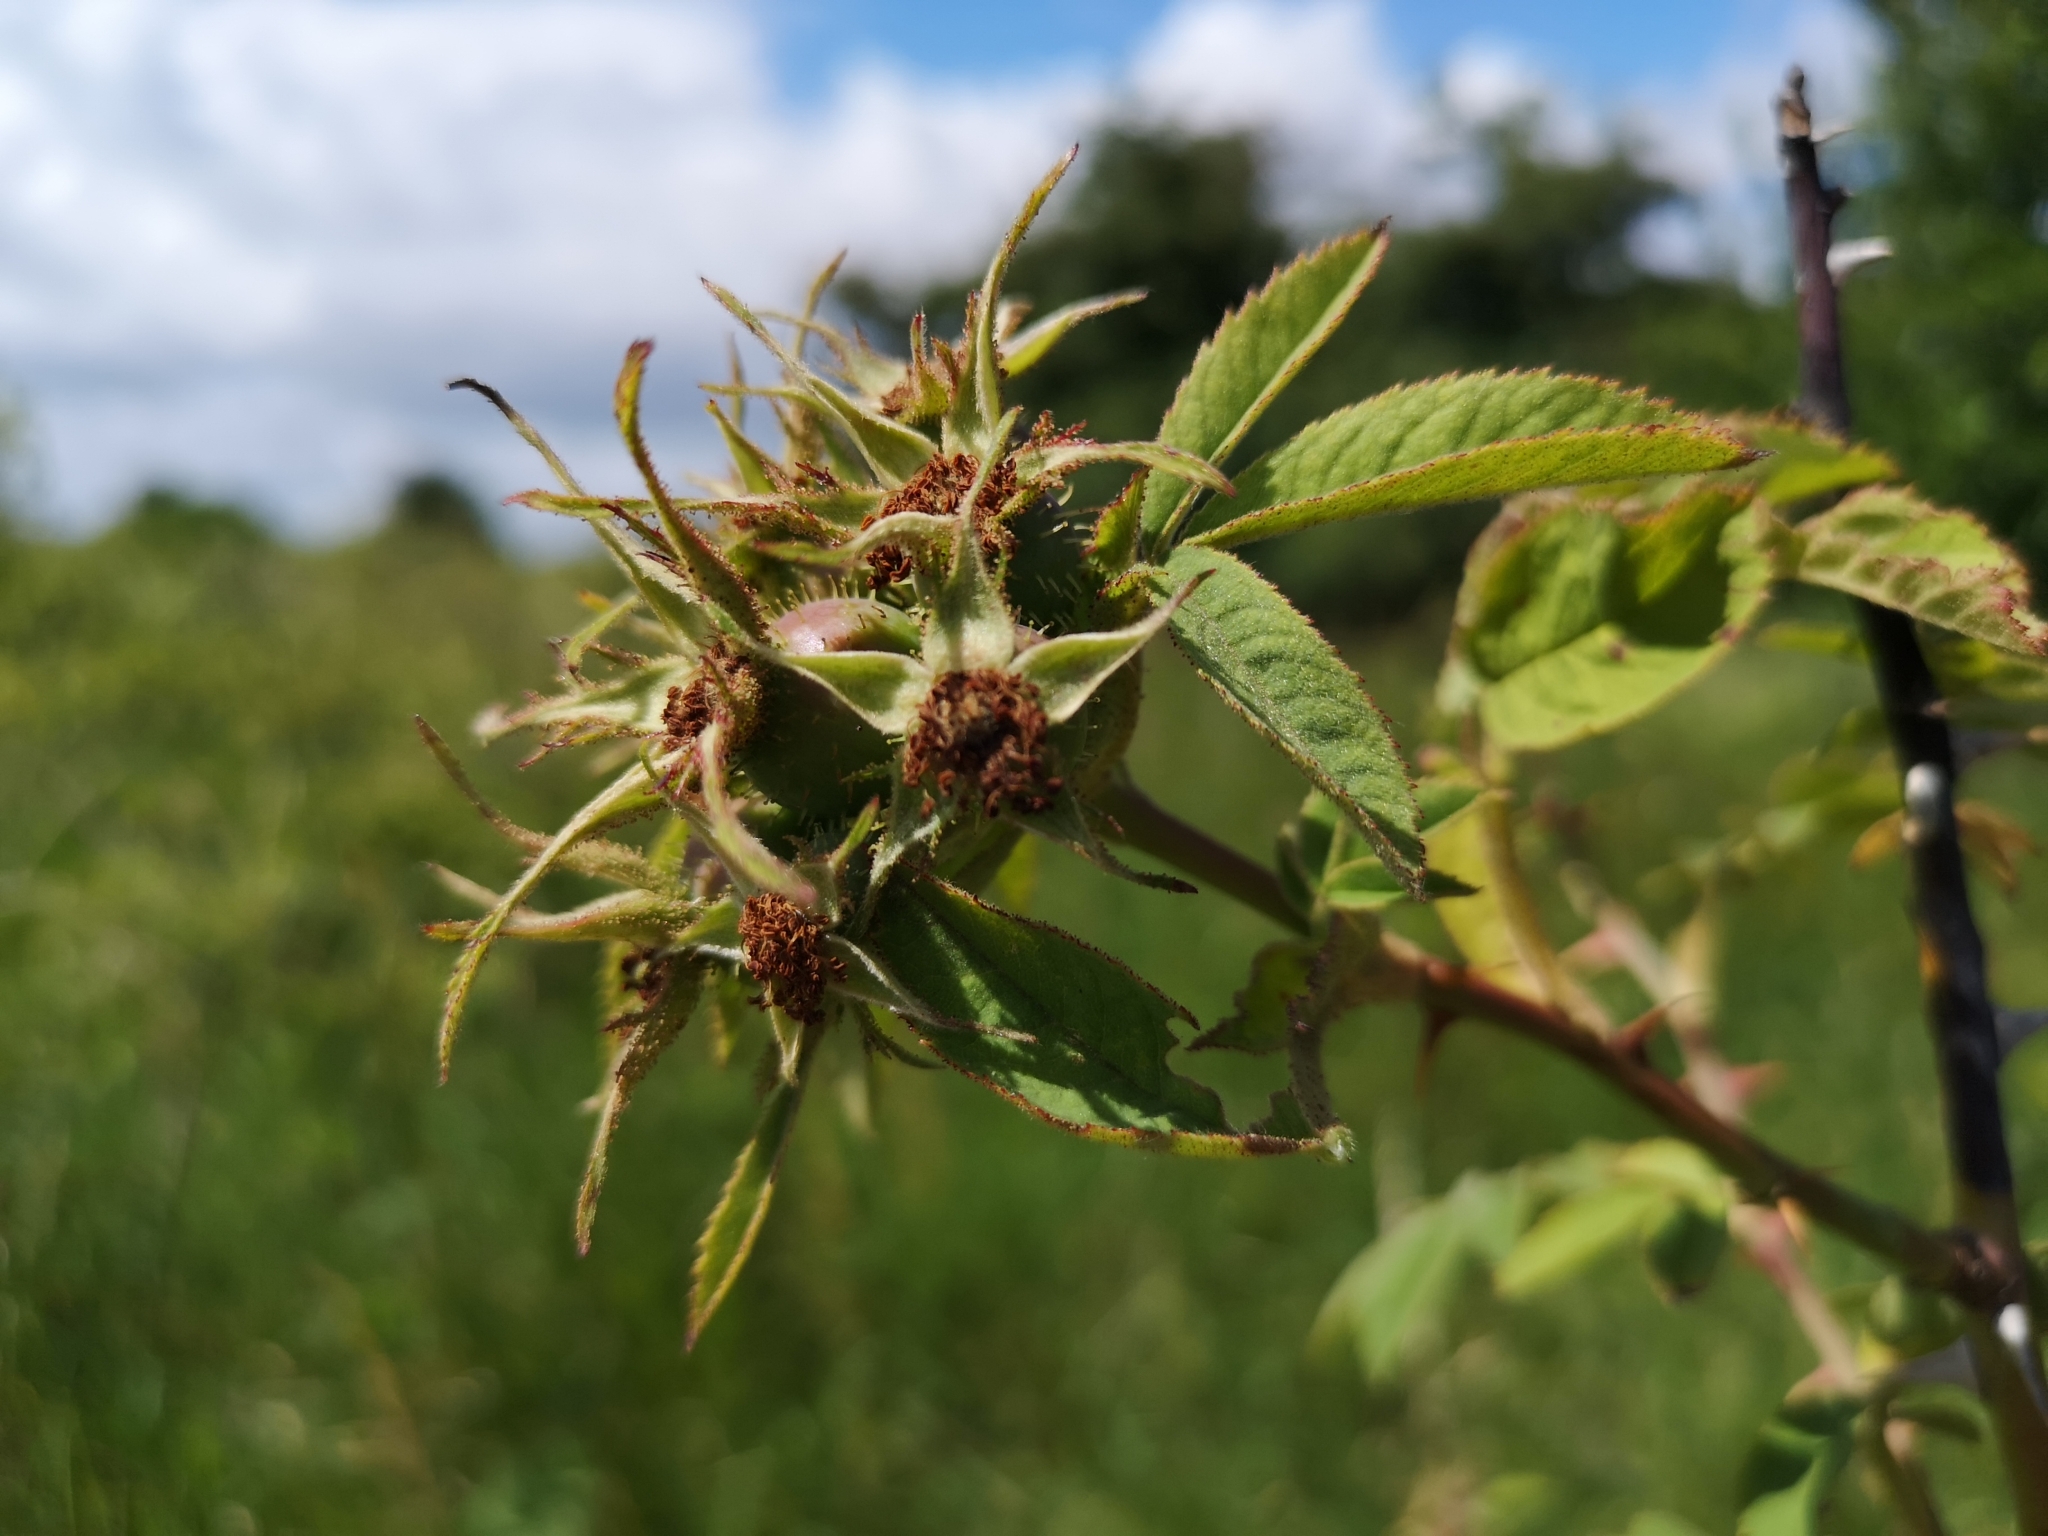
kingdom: Plantae
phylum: Tracheophyta
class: Magnoliopsida
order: Rosales
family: Rosaceae
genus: Rosa
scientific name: Rosa sherardii
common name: Sherard's downy rose
